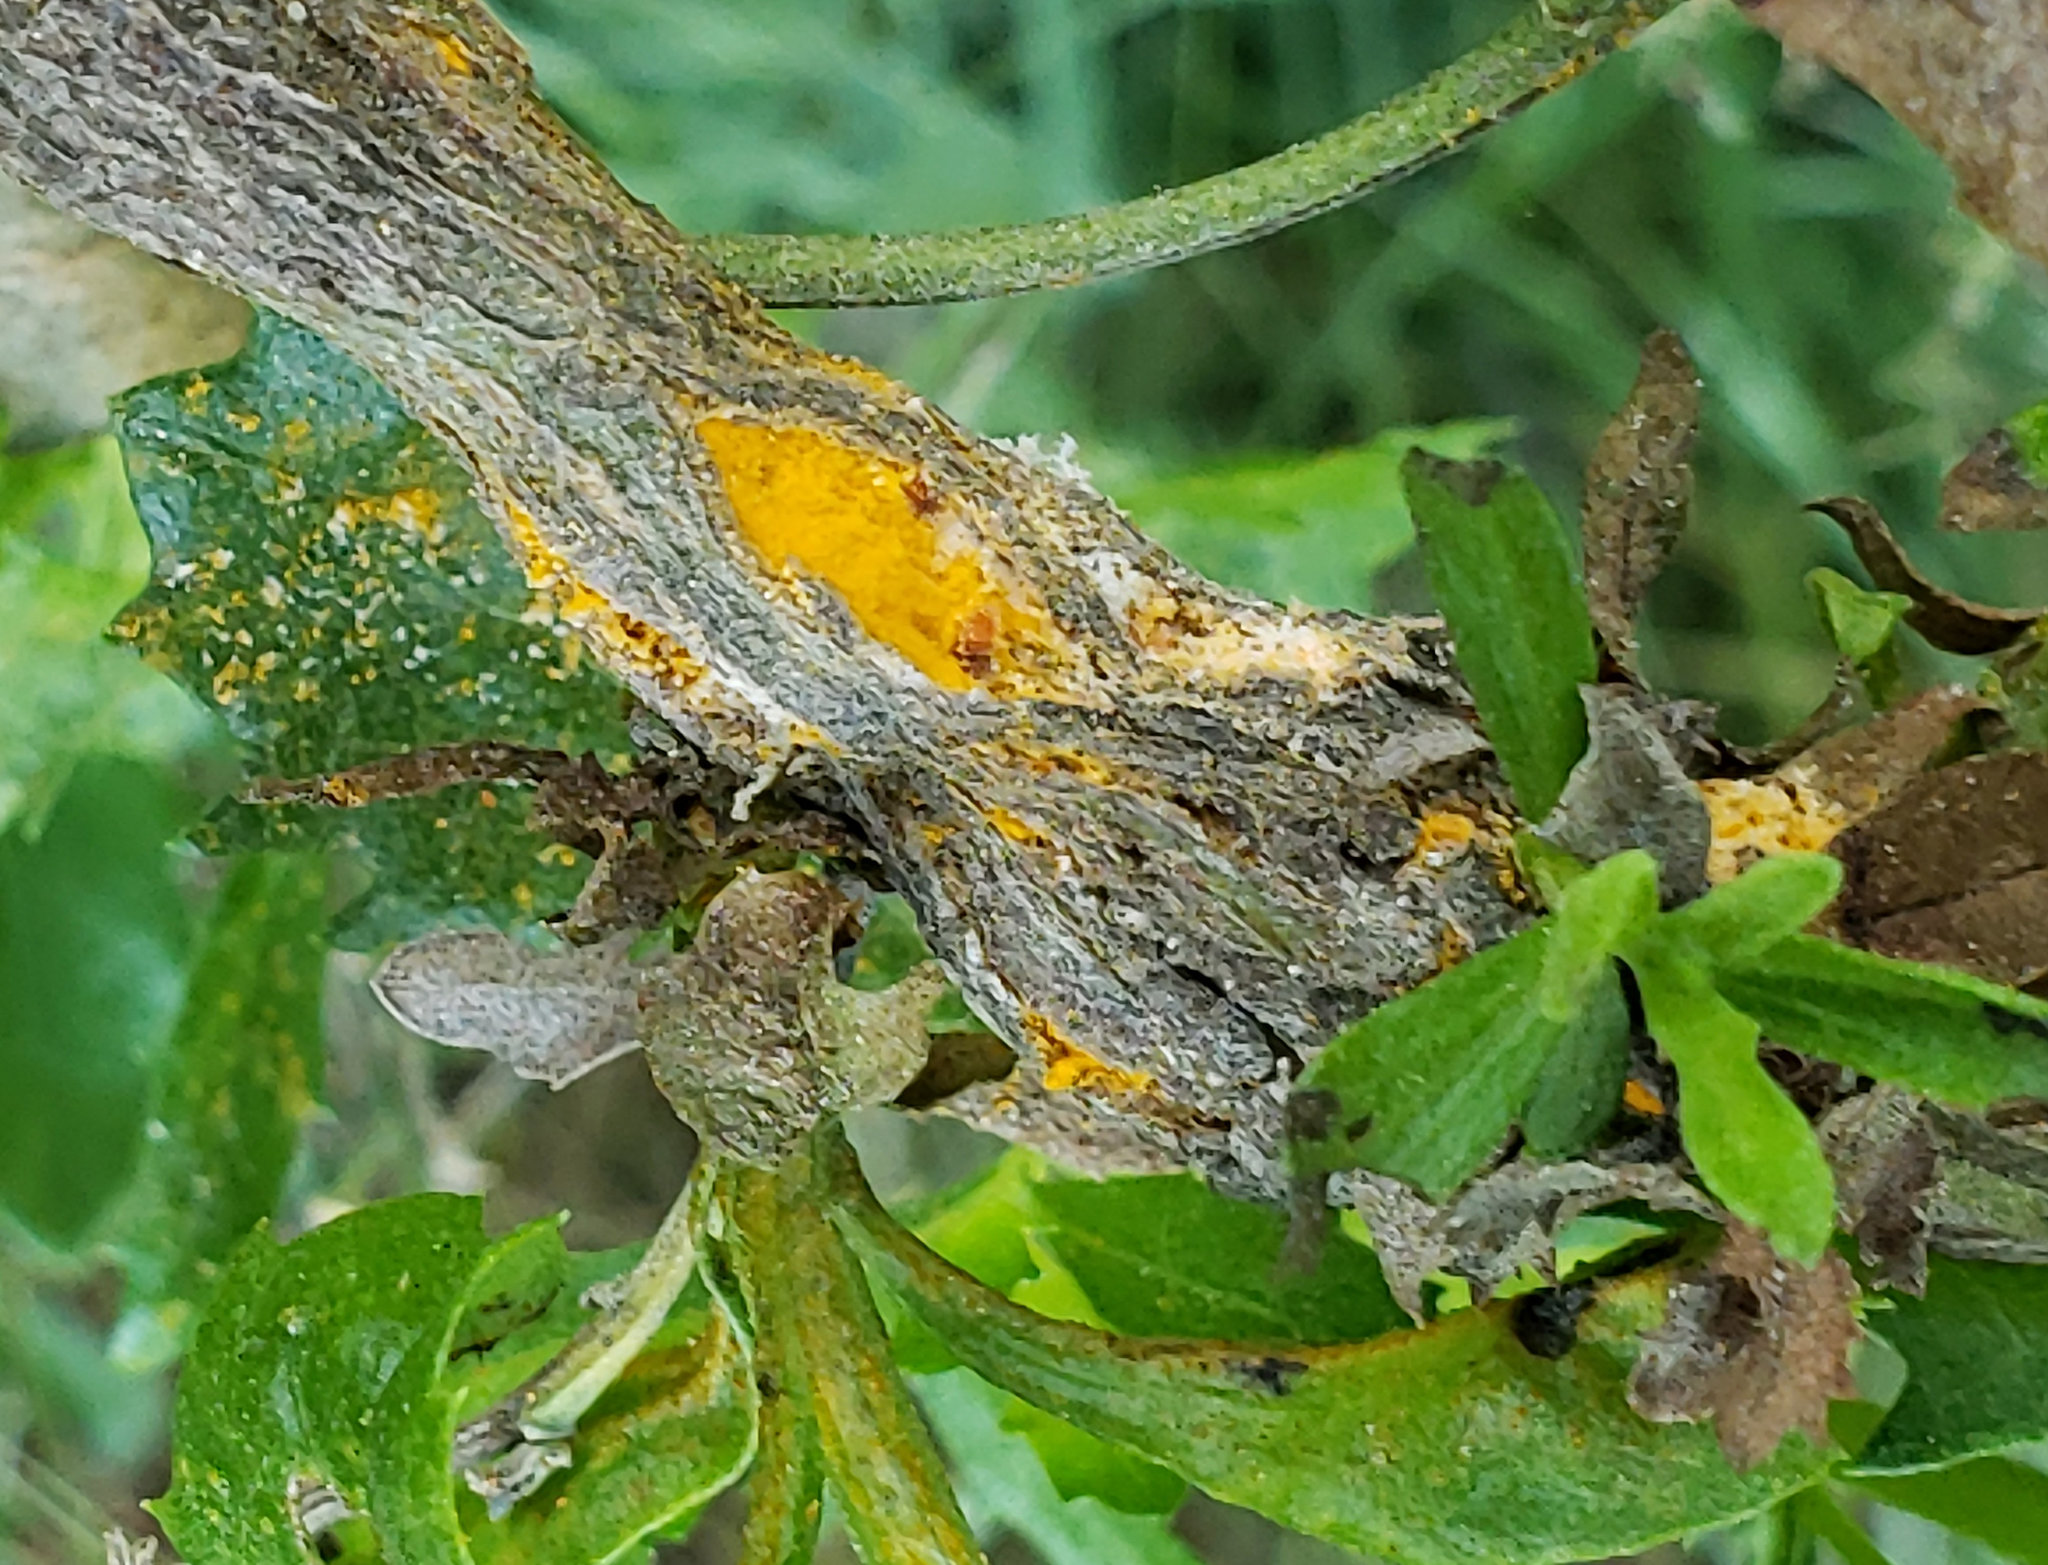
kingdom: Fungi
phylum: Basidiomycota
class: Pucciniomycetes
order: Pucciniales
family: Pucciniaceae
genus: Eriosporangium
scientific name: Eriosporangium evadens
